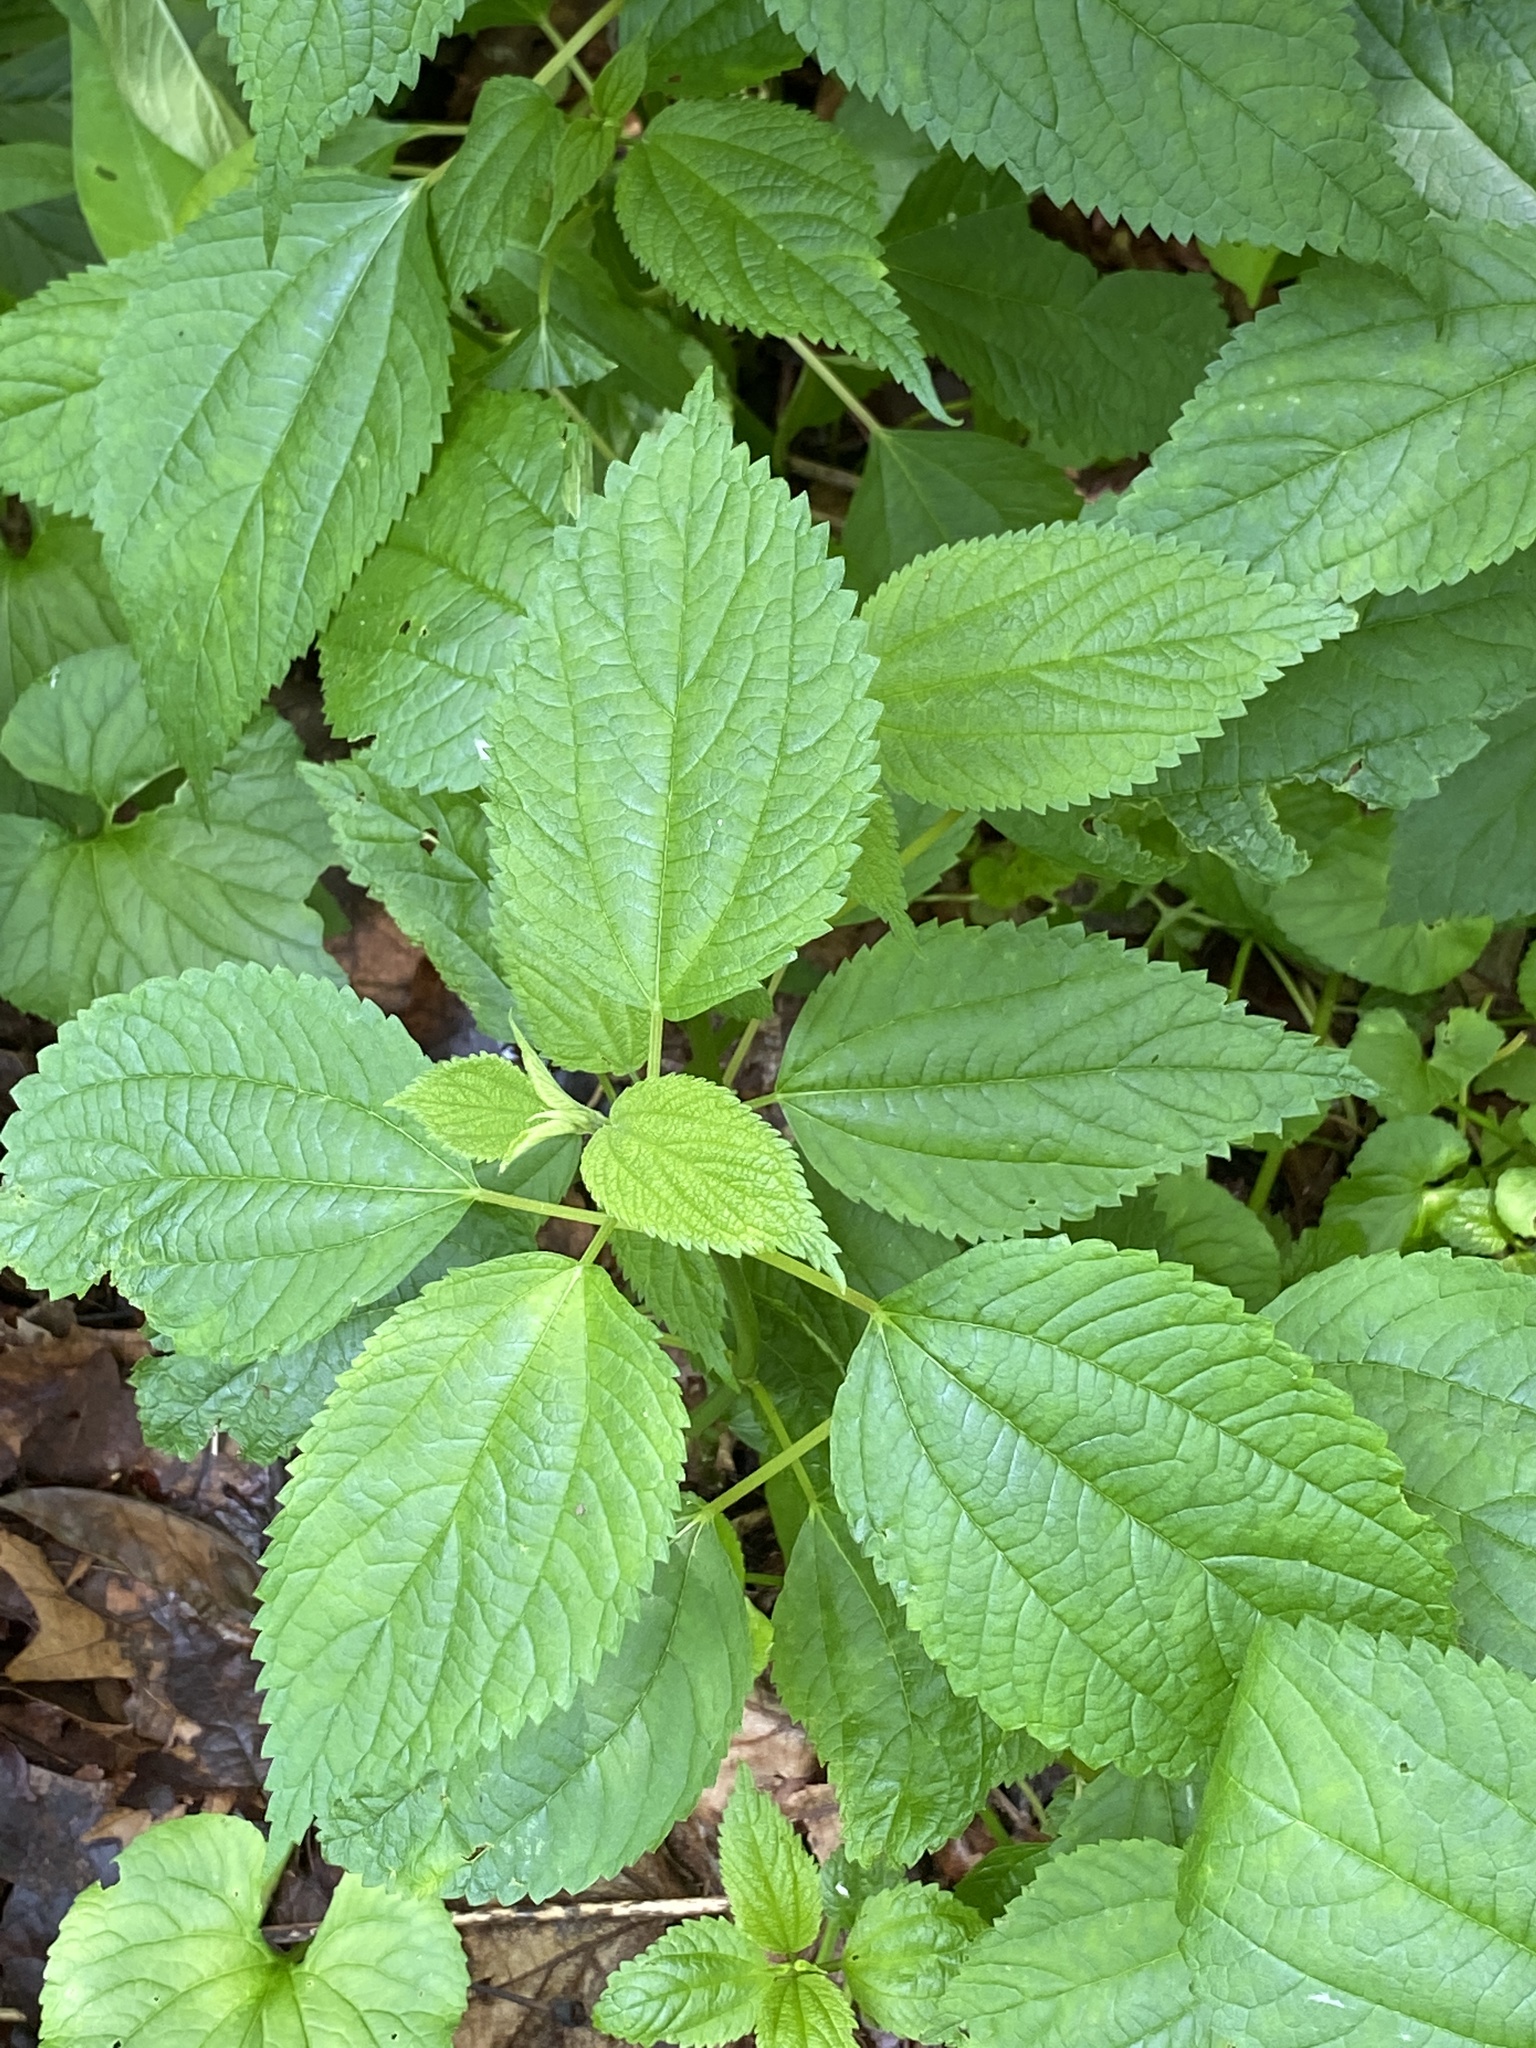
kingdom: Plantae
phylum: Tracheophyta
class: Magnoliopsida
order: Rosales
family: Urticaceae
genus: Boehmeria
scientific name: Boehmeria cylindrica
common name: Bog-hemp
